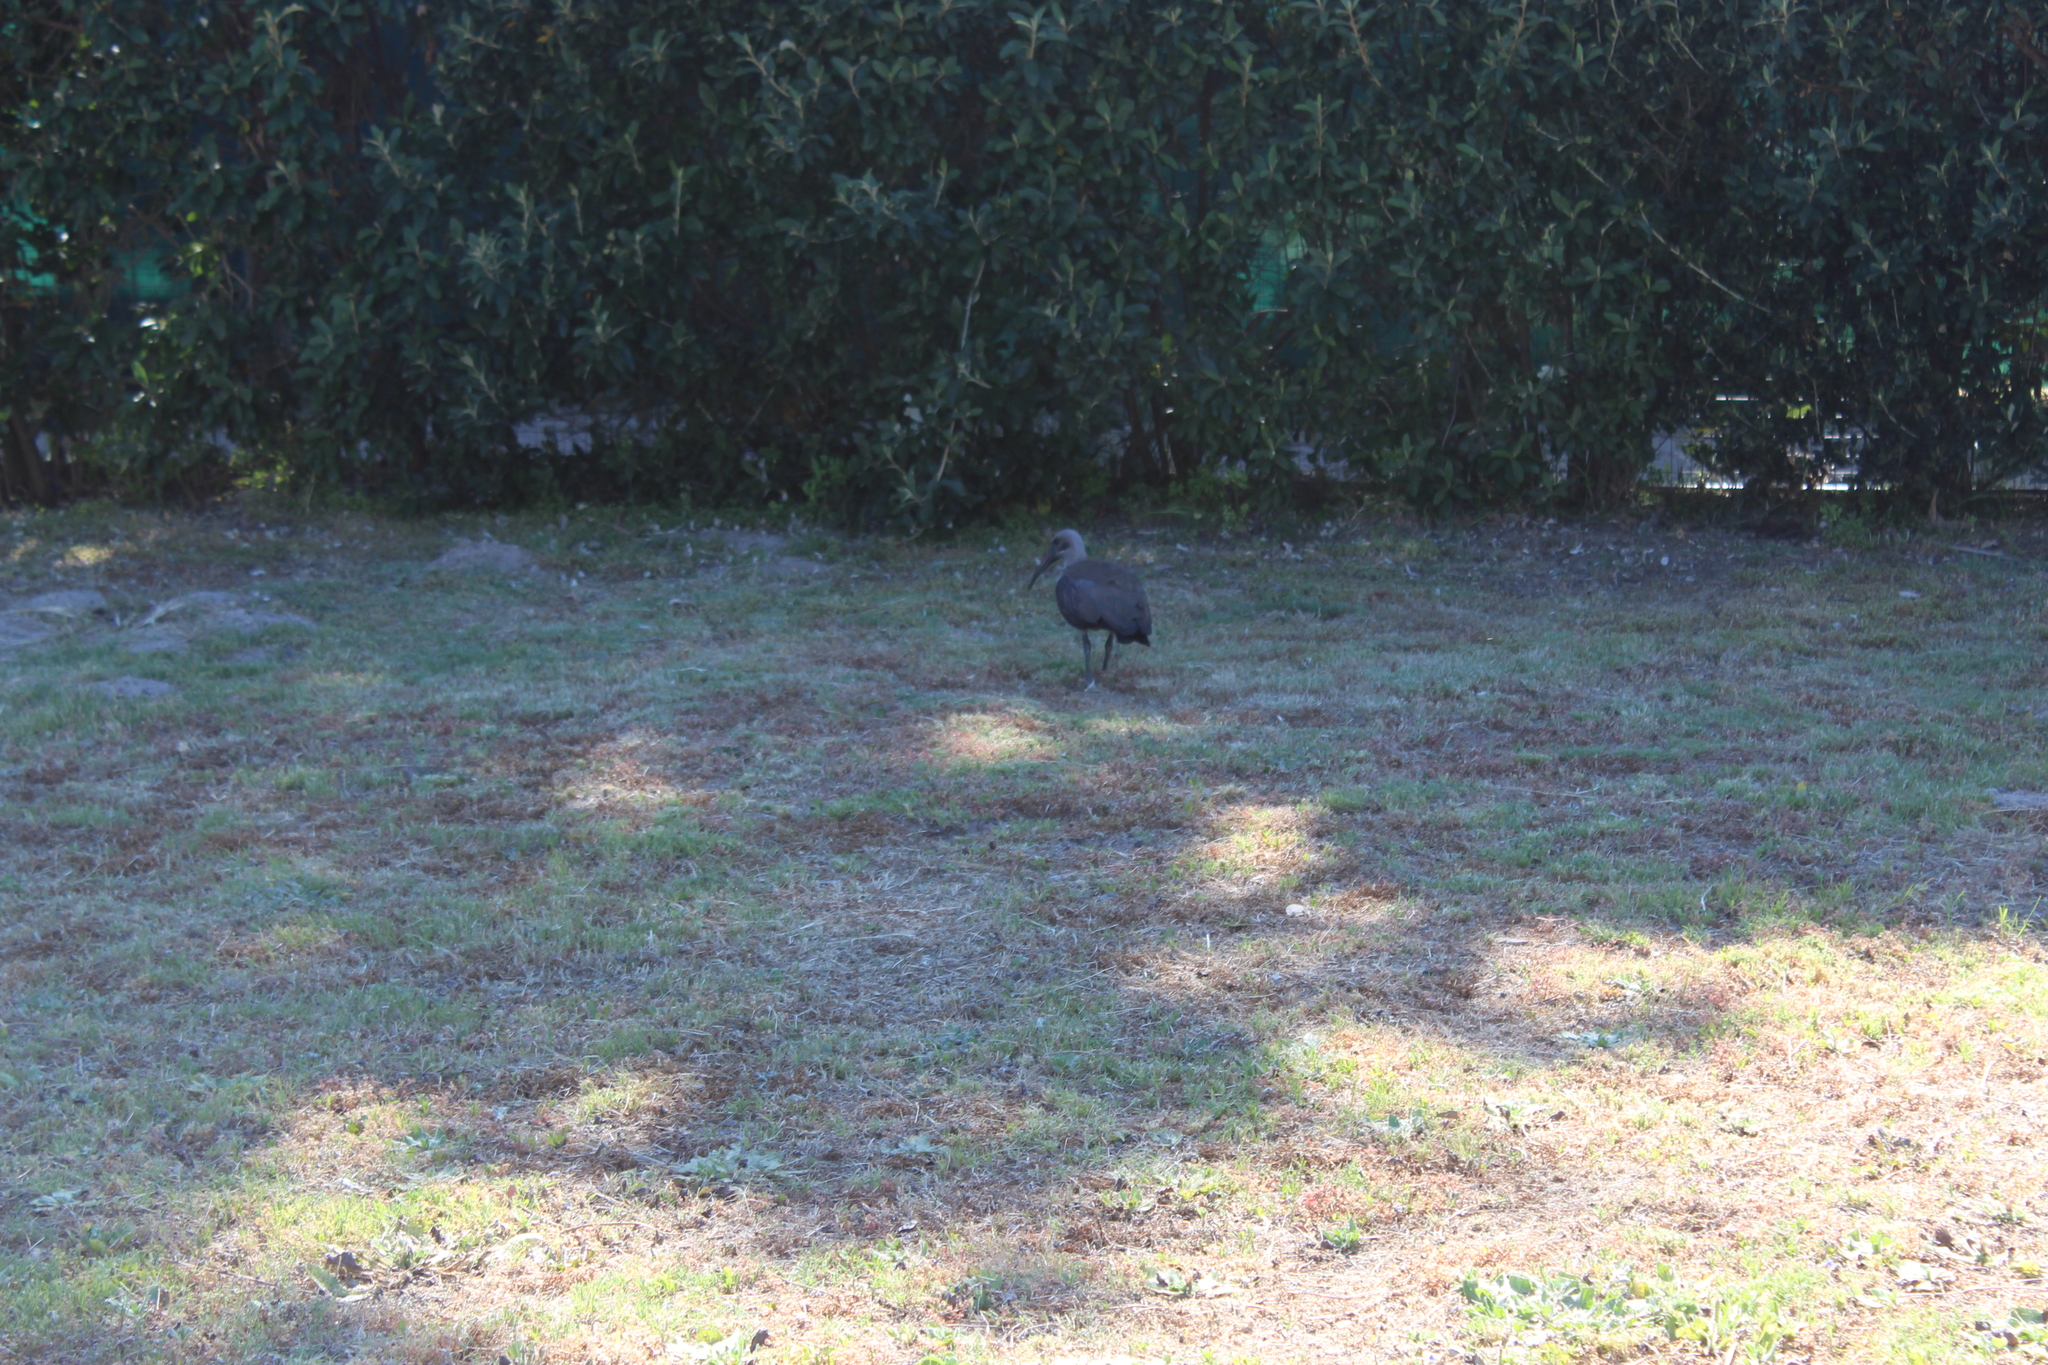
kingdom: Animalia
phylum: Chordata
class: Aves
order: Pelecaniformes
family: Threskiornithidae
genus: Bostrychia
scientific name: Bostrychia hagedash
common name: Hadada ibis
